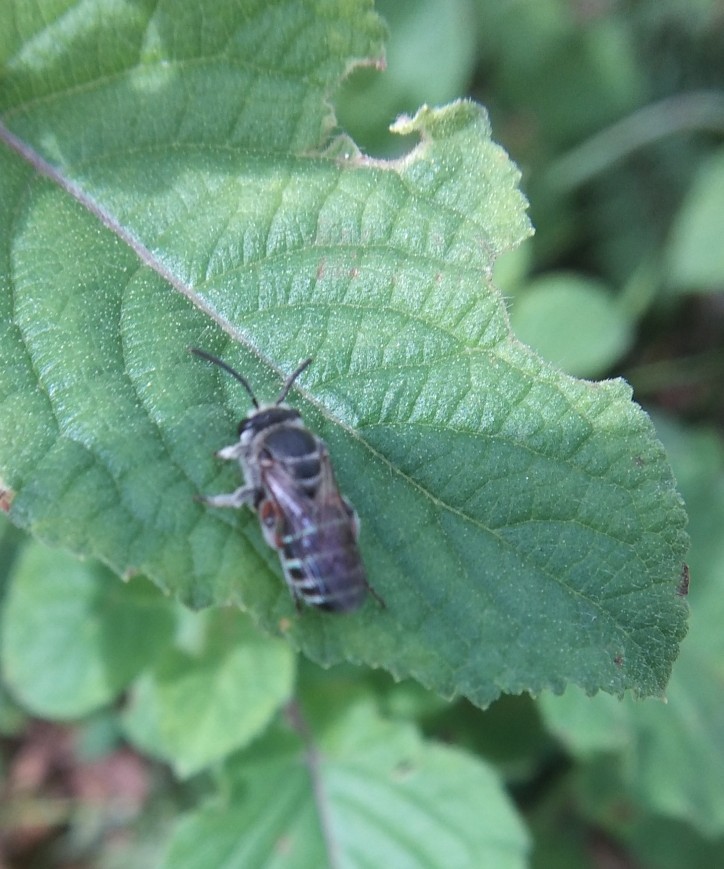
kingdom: Animalia
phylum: Arthropoda
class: Insecta
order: Hymenoptera
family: Halictidae
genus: Nomia
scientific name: Nomia westwoodi
